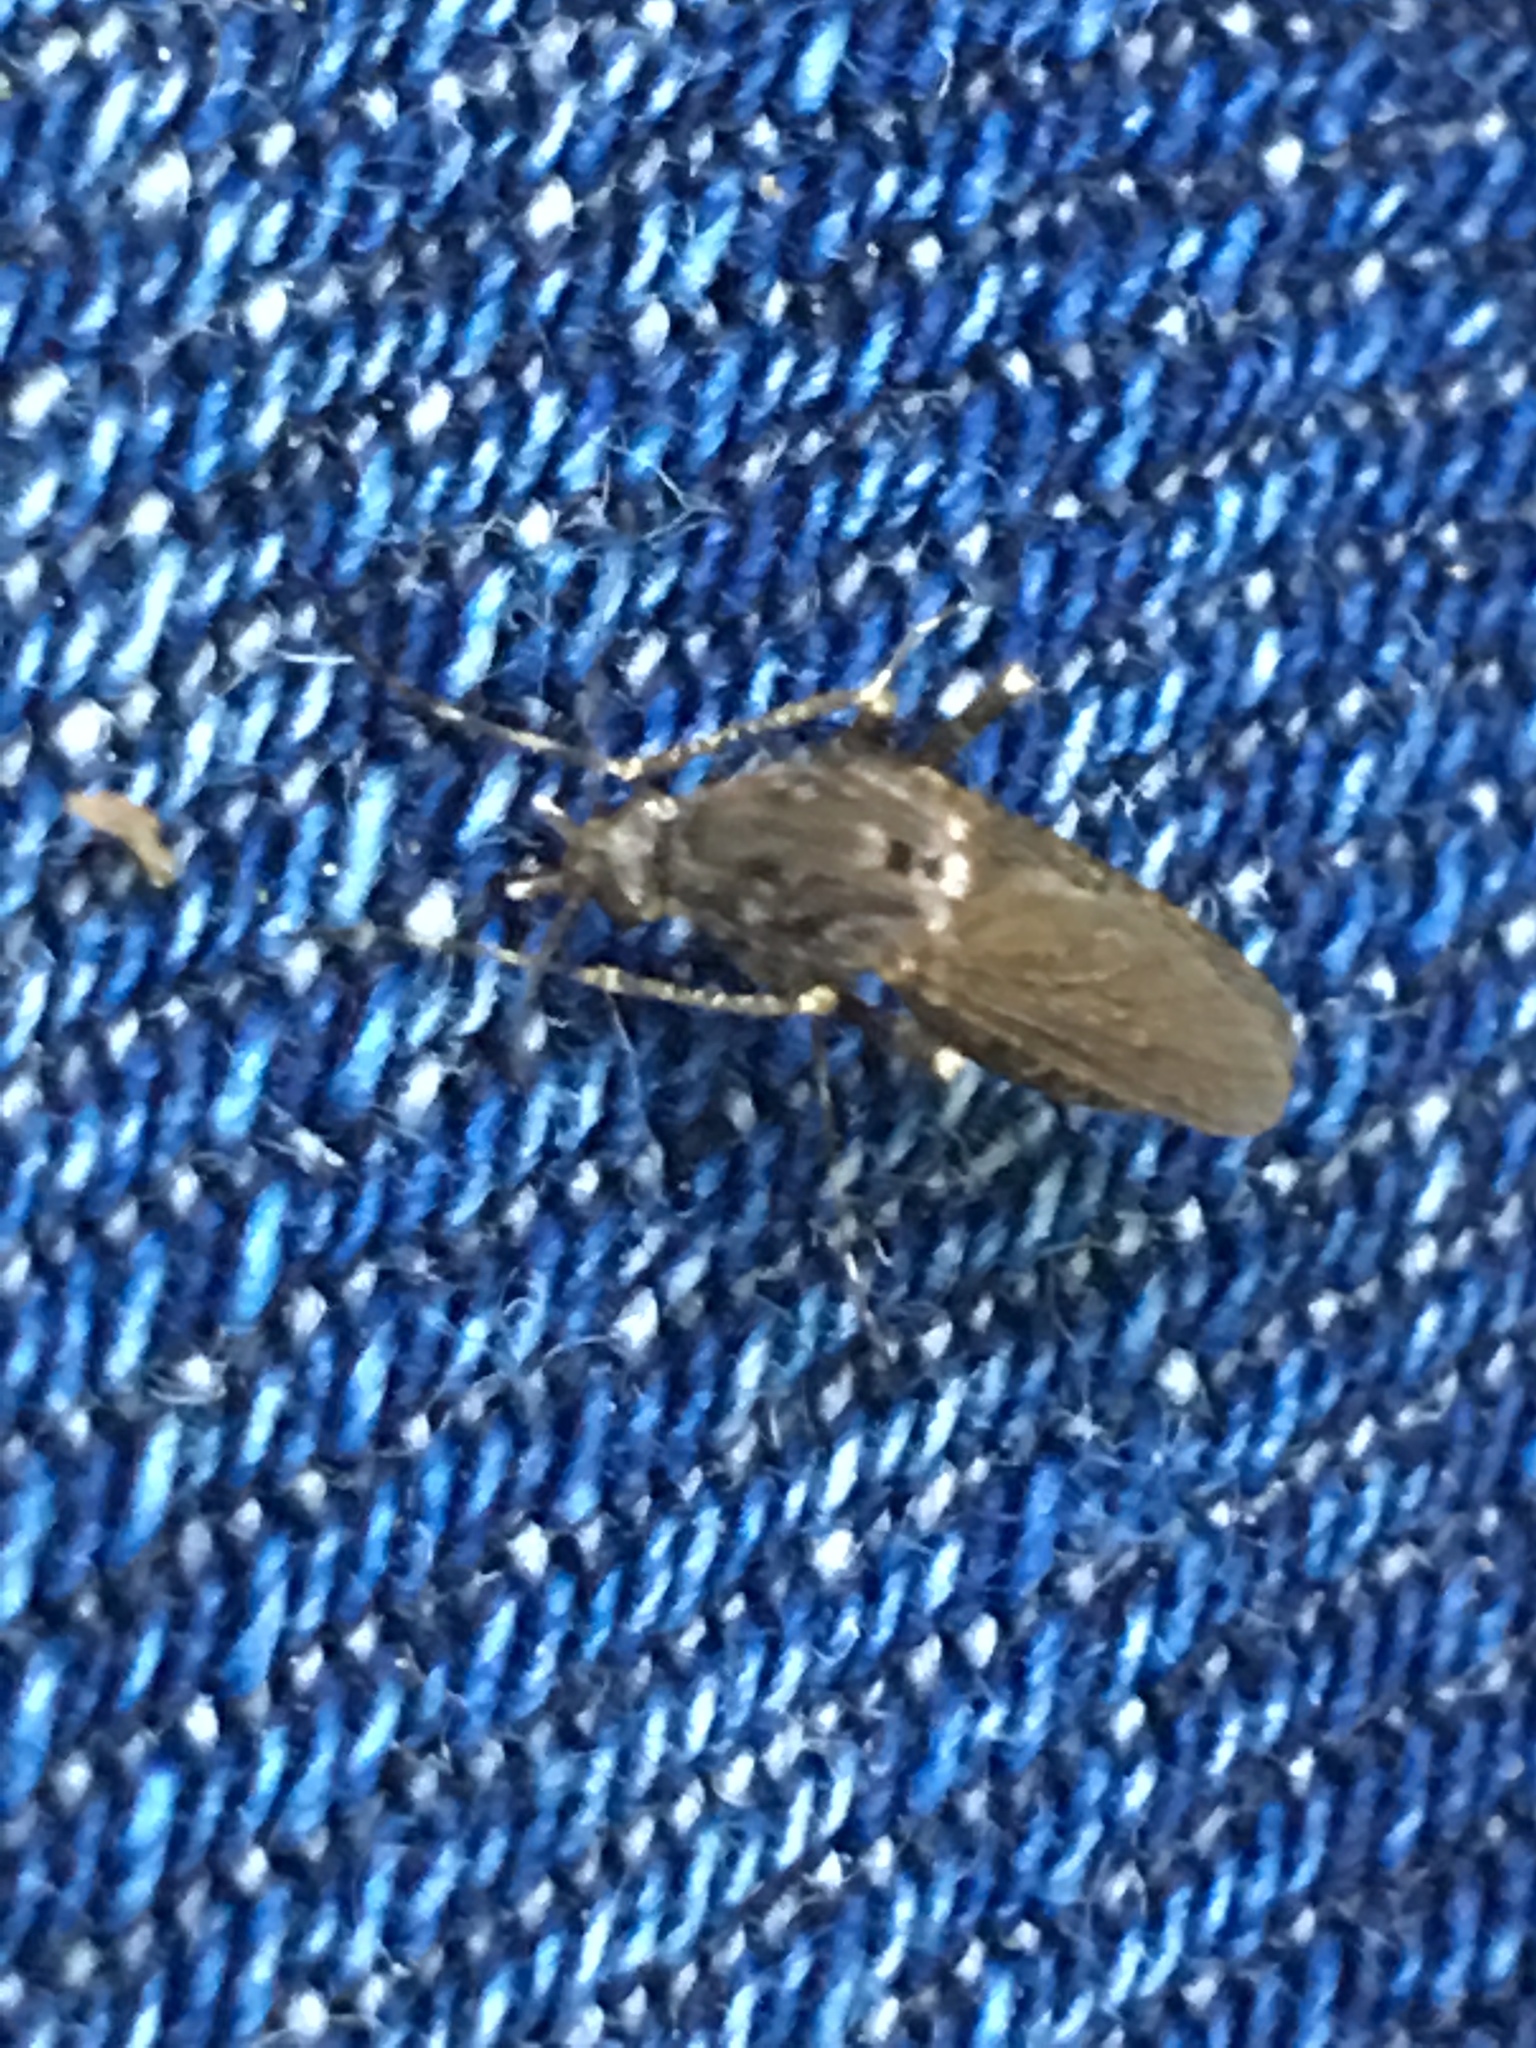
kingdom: Animalia
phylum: Arthropoda
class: Insecta
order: Diptera
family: Culicidae
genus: Psorophora
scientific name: Psorophora columbiae
